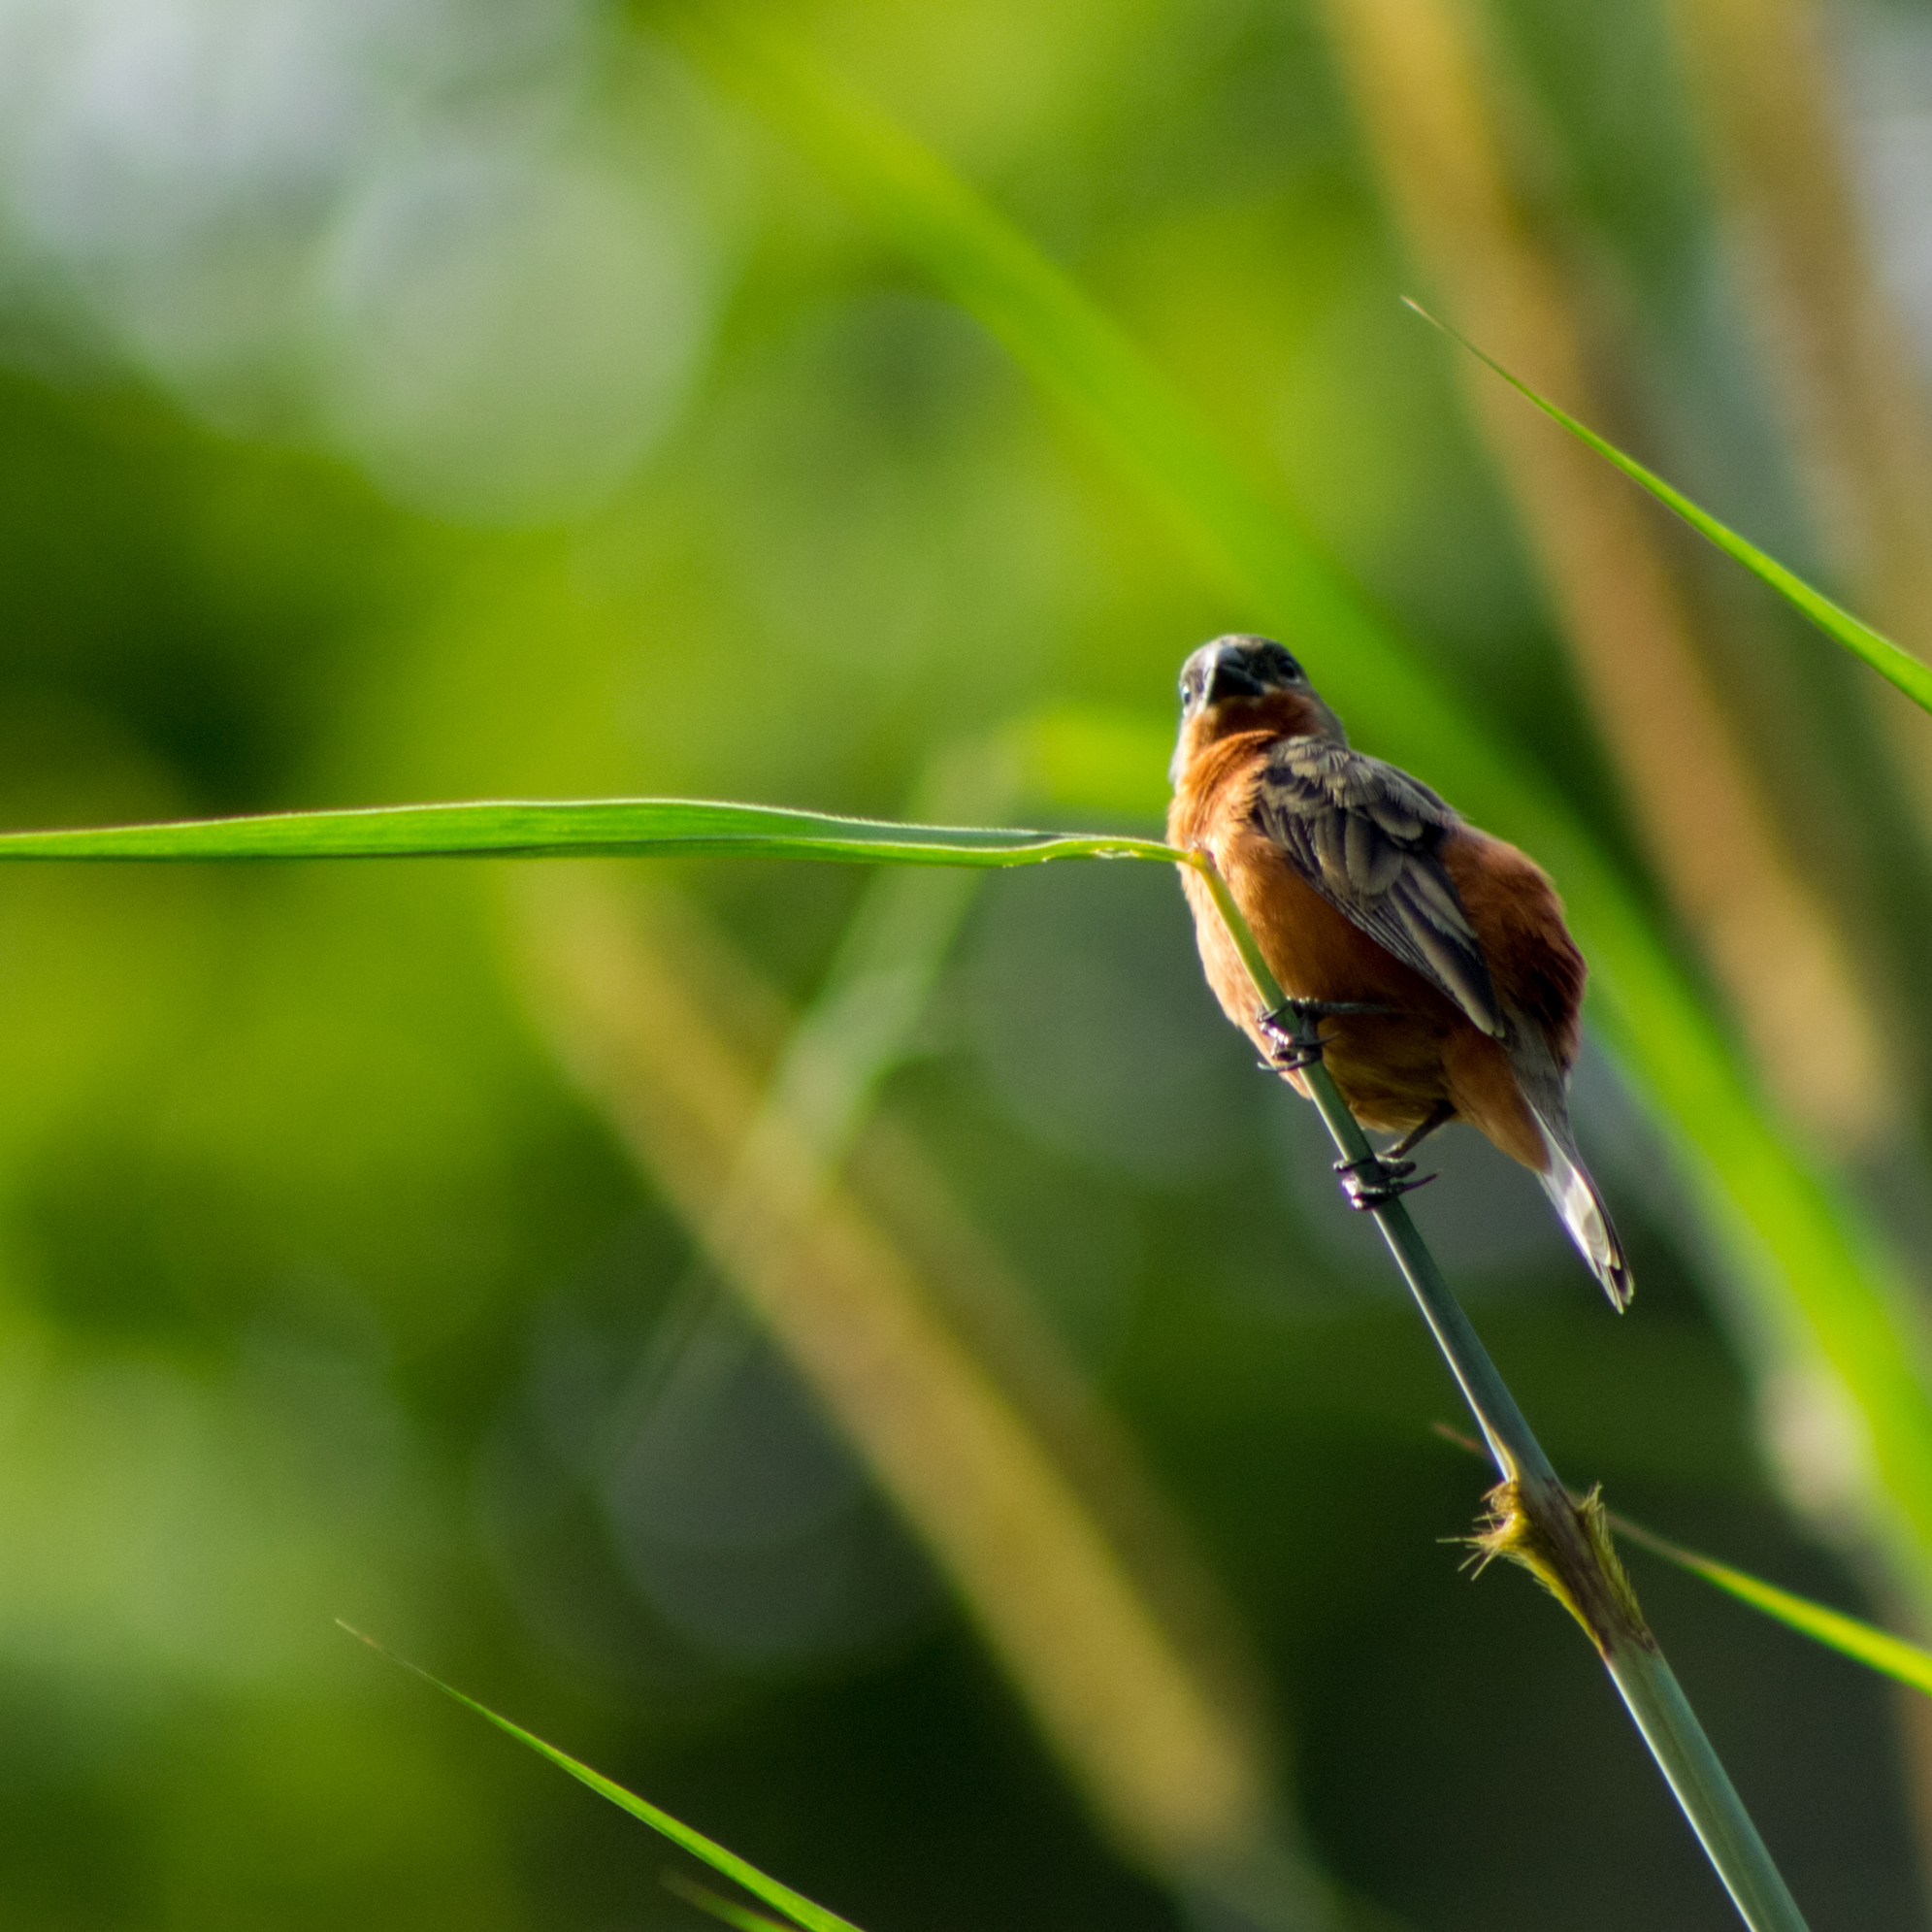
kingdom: Animalia
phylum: Chordata
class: Aves
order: Passeriformes
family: Thraupidae
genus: Sporophila
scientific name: Sporophila minuta
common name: Ruddy-breasted seedeater
